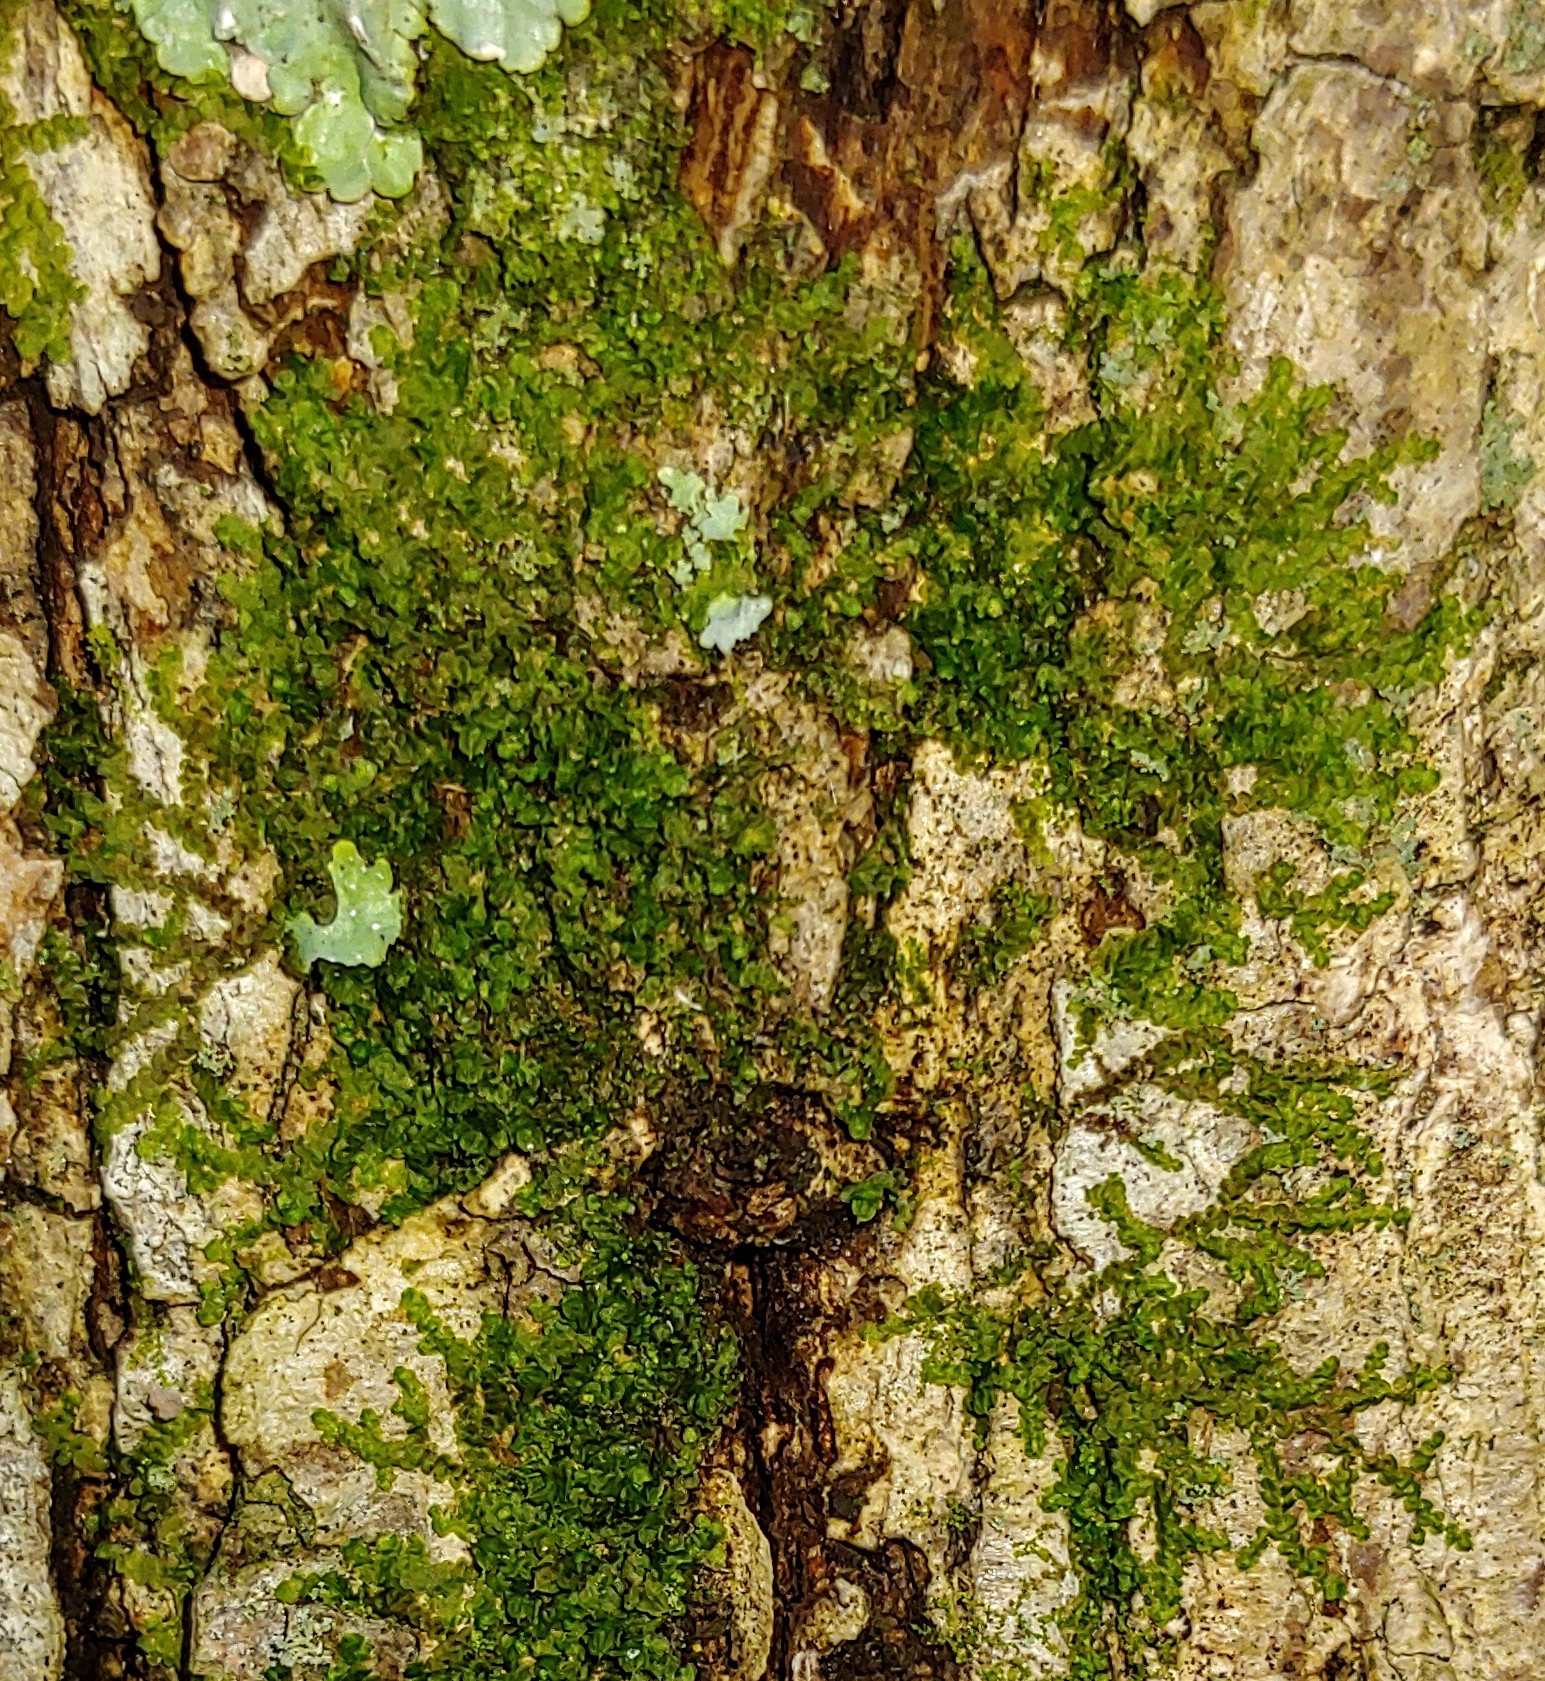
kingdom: Plantae
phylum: Marchantiophyta
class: Jungermanniopsida
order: Porellales
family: Frullaniaceae
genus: Frullania
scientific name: Frullania eboracensis
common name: New york scalewort
